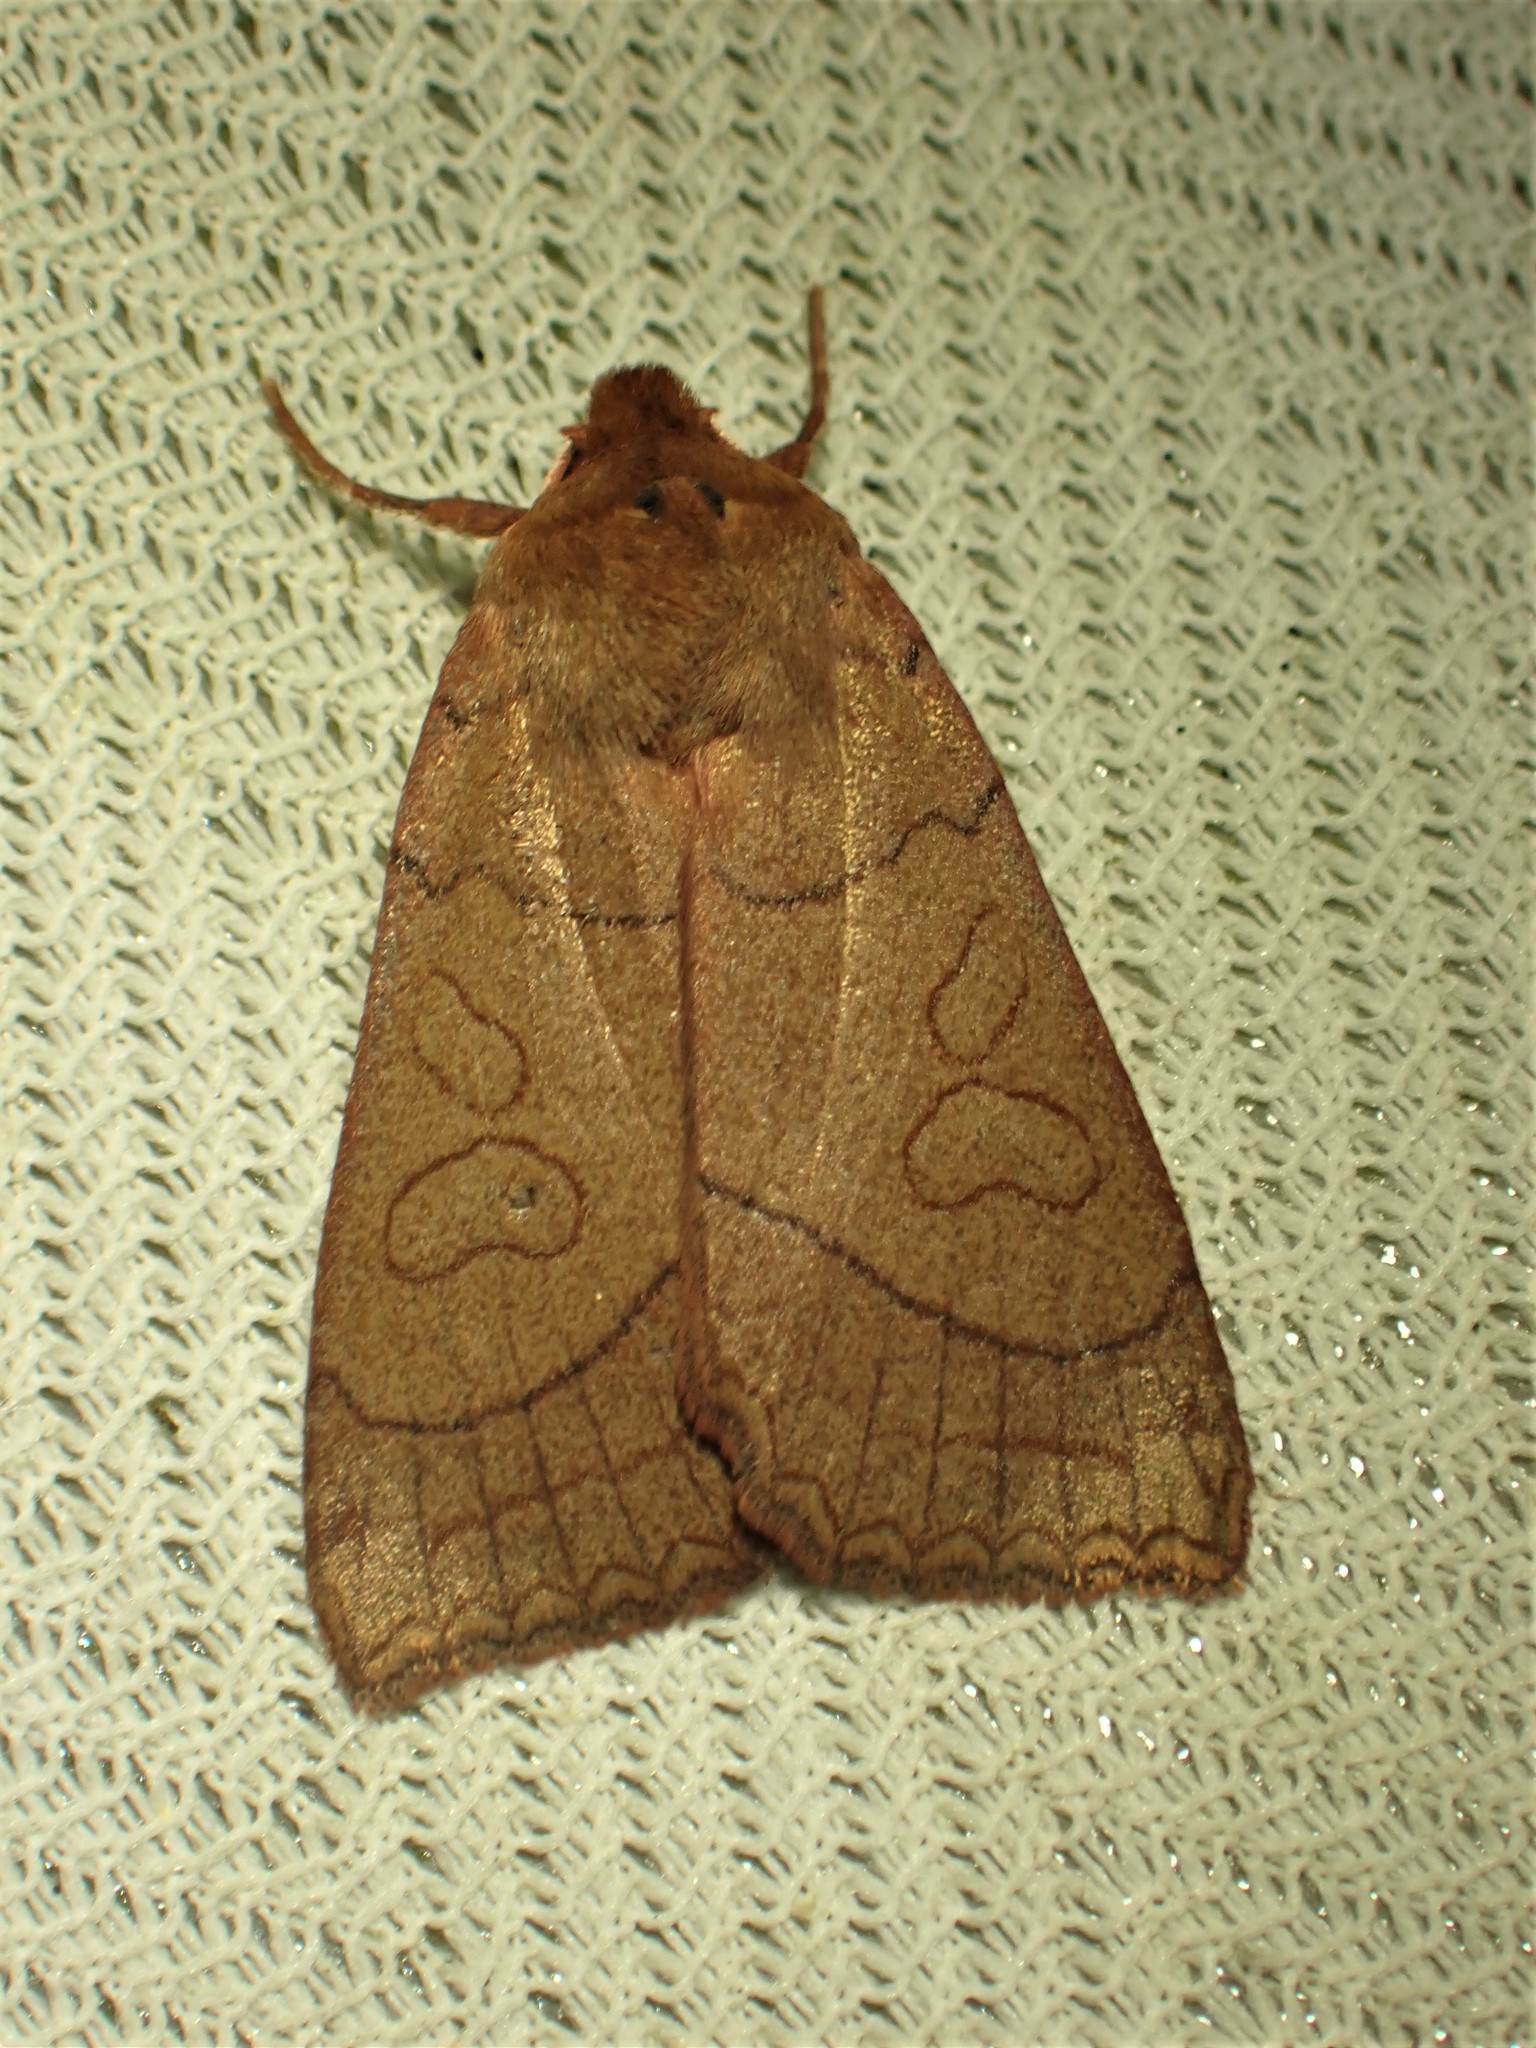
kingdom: Animalia
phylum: Arthropoda
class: Insecta
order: Lepidoptera
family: Noctuidae
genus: Metaxaglaea
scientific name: Metaxaglaea inulta
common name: Unsated sallow
